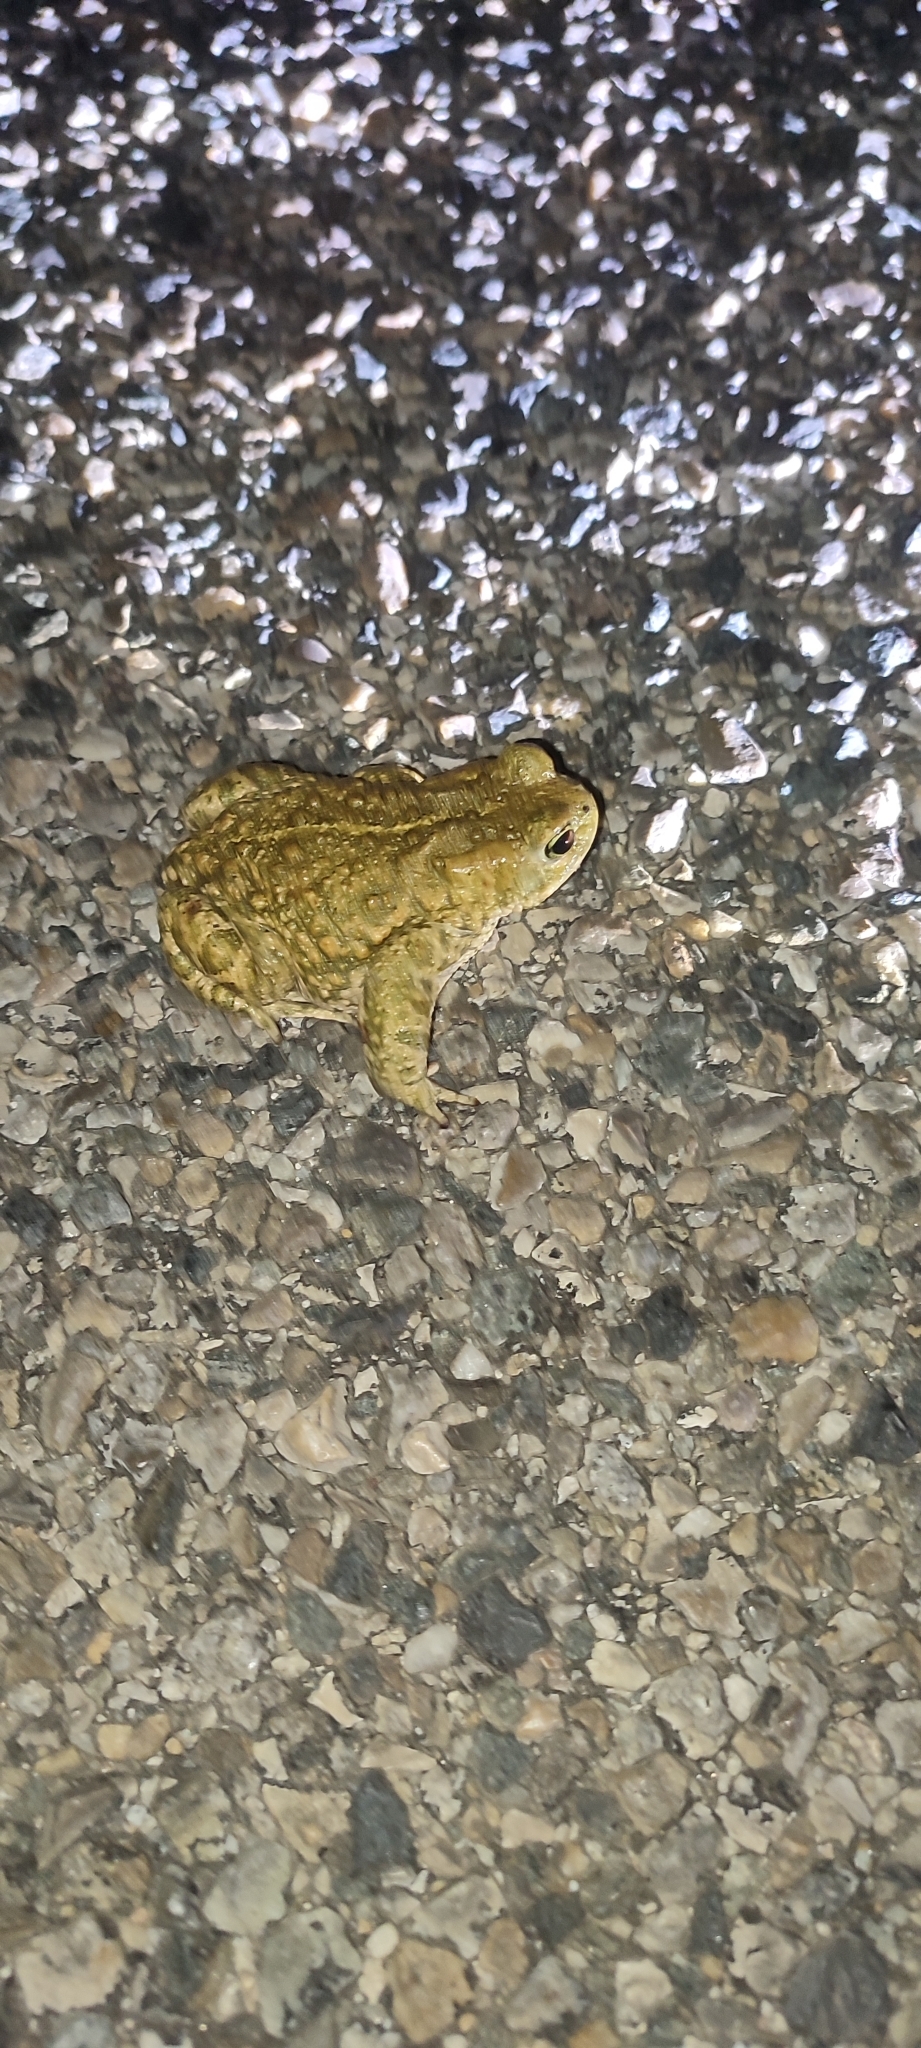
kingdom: Animalia
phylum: Chordata
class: Amphibia
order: Anura
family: Bufonidae
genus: Epidalea
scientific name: Epidalea calamita
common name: Natterjack toad
